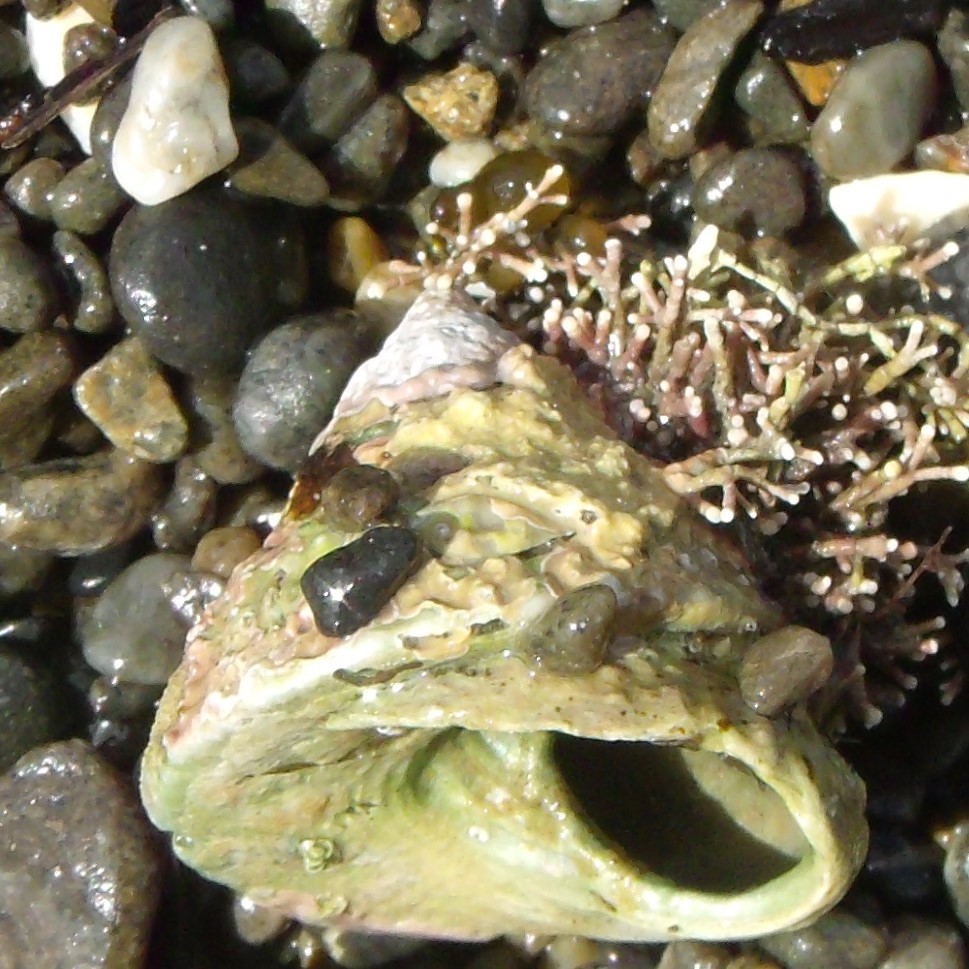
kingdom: Animalia
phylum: Mollusca
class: Gastropoda
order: Trochida
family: Trochidae
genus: Coelotrochus
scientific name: Coelotrochus viridis
